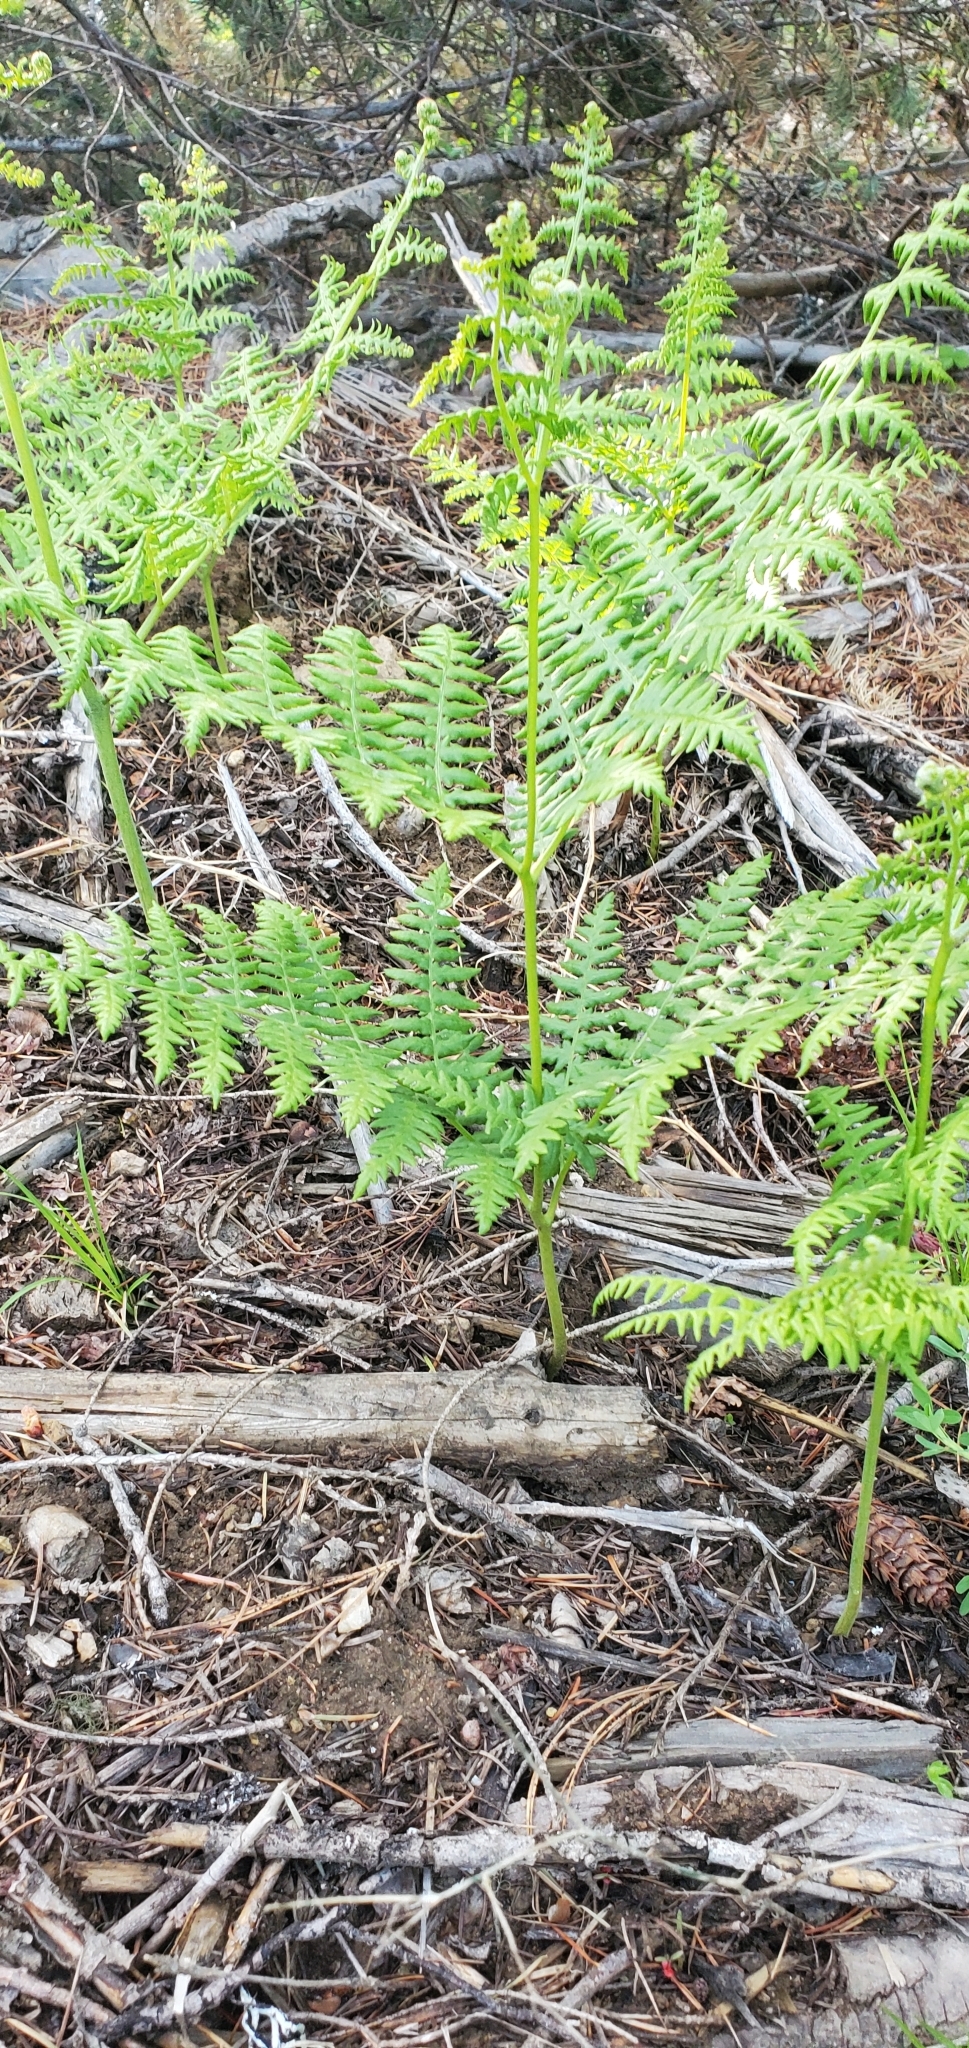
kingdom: Plantae
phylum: Tracheophyta
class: Polypodiopsida
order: Polypodiales
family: Dennstaedtiaceae
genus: Pteridium
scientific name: Pteridium aquilinum
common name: Bracken
